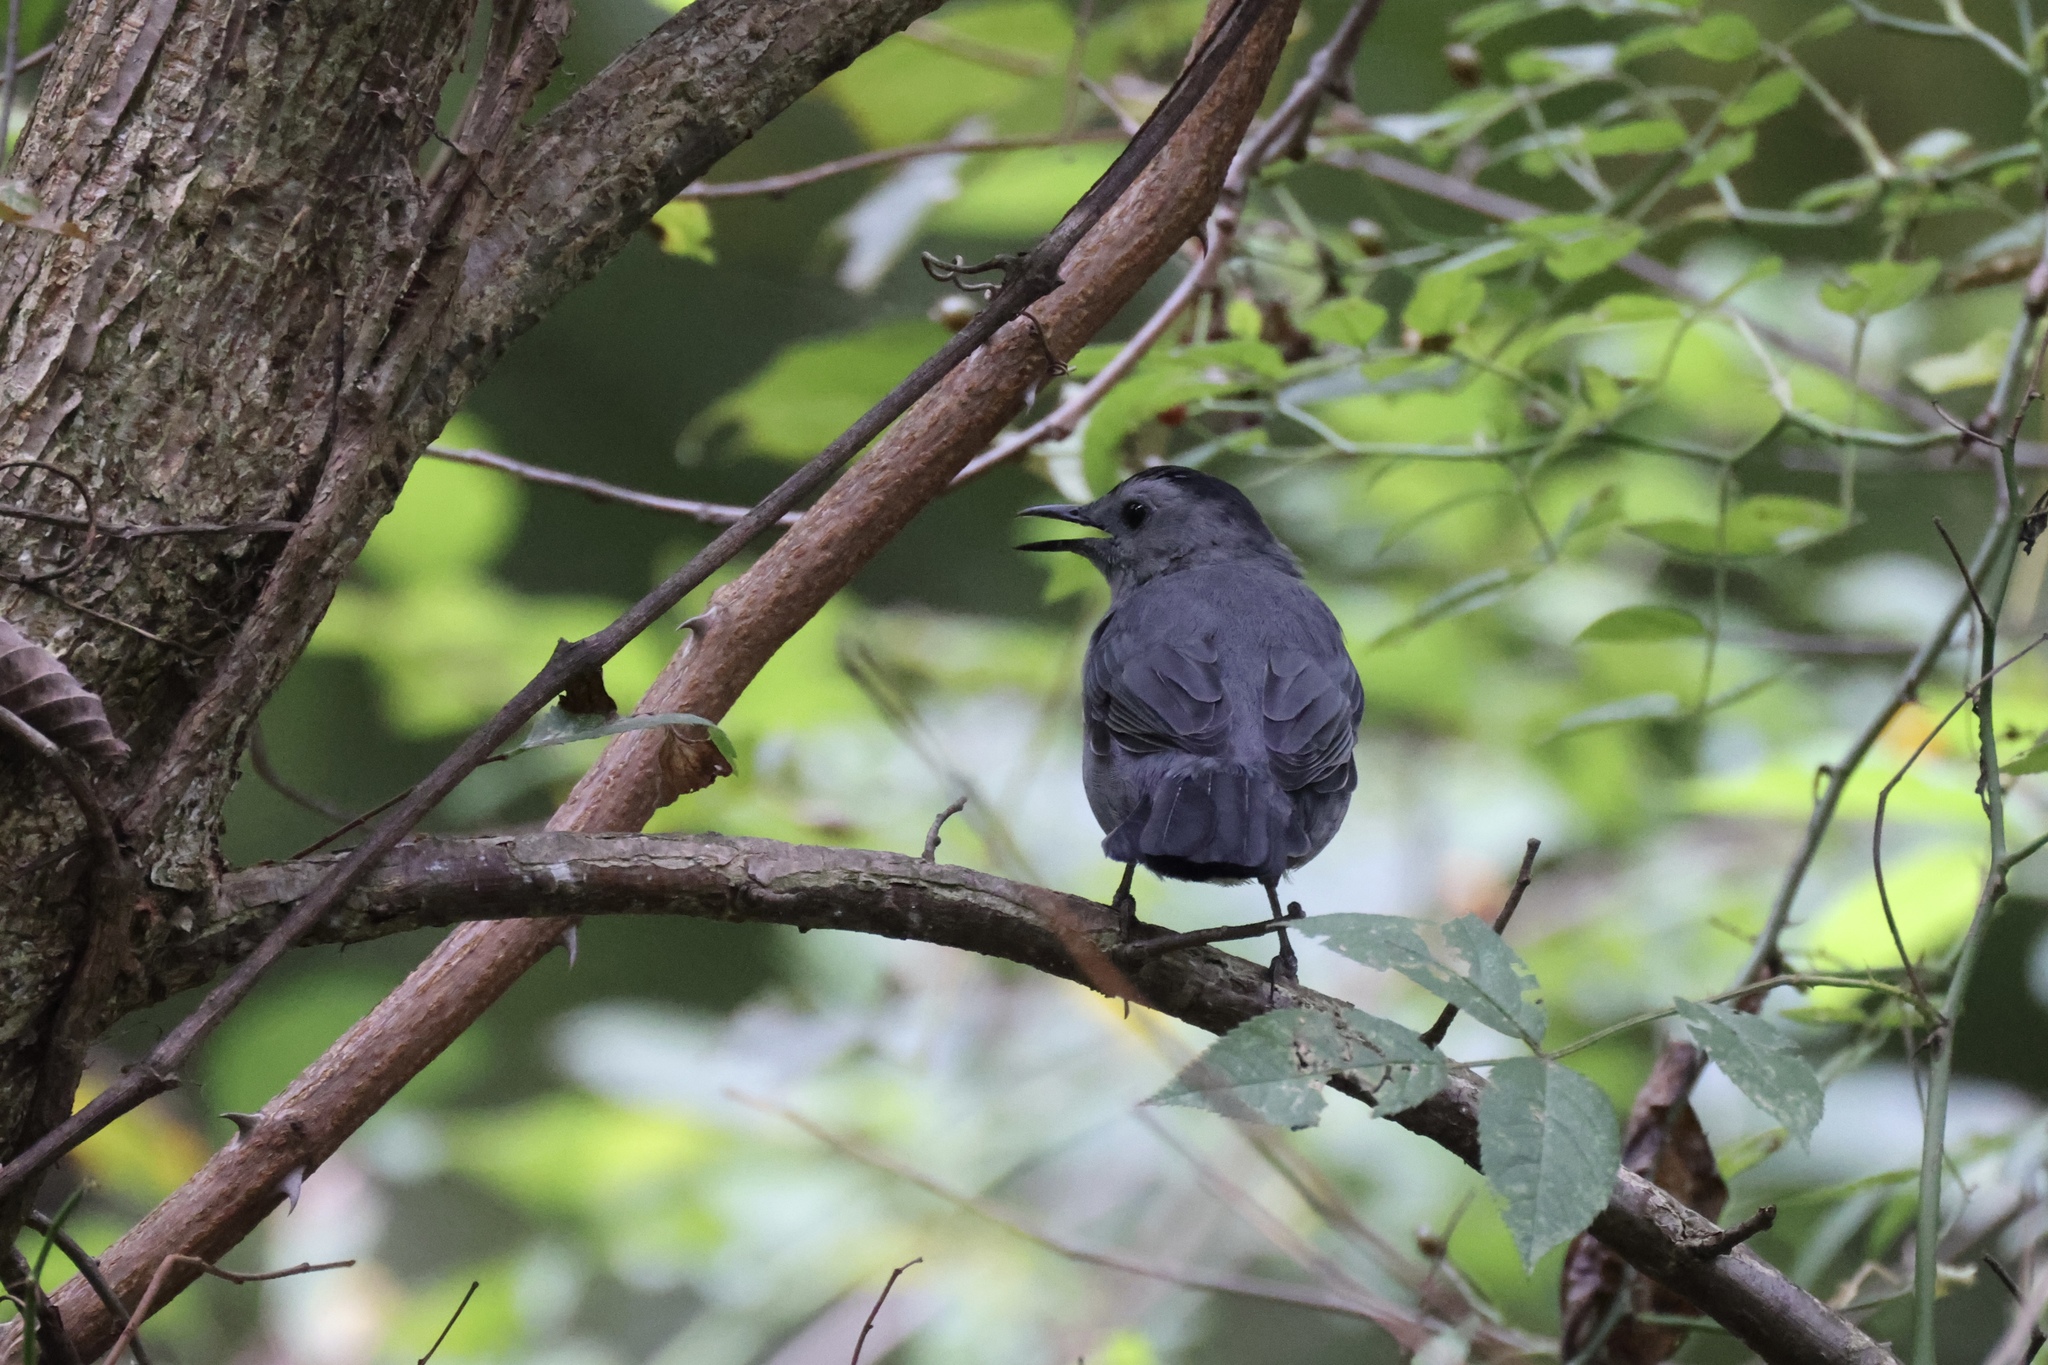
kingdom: Animalia
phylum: Chordata
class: Aves
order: Passeriformes
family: Mimidae
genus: Dumetella
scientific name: Dumetella carolinensis
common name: Gray catbird
